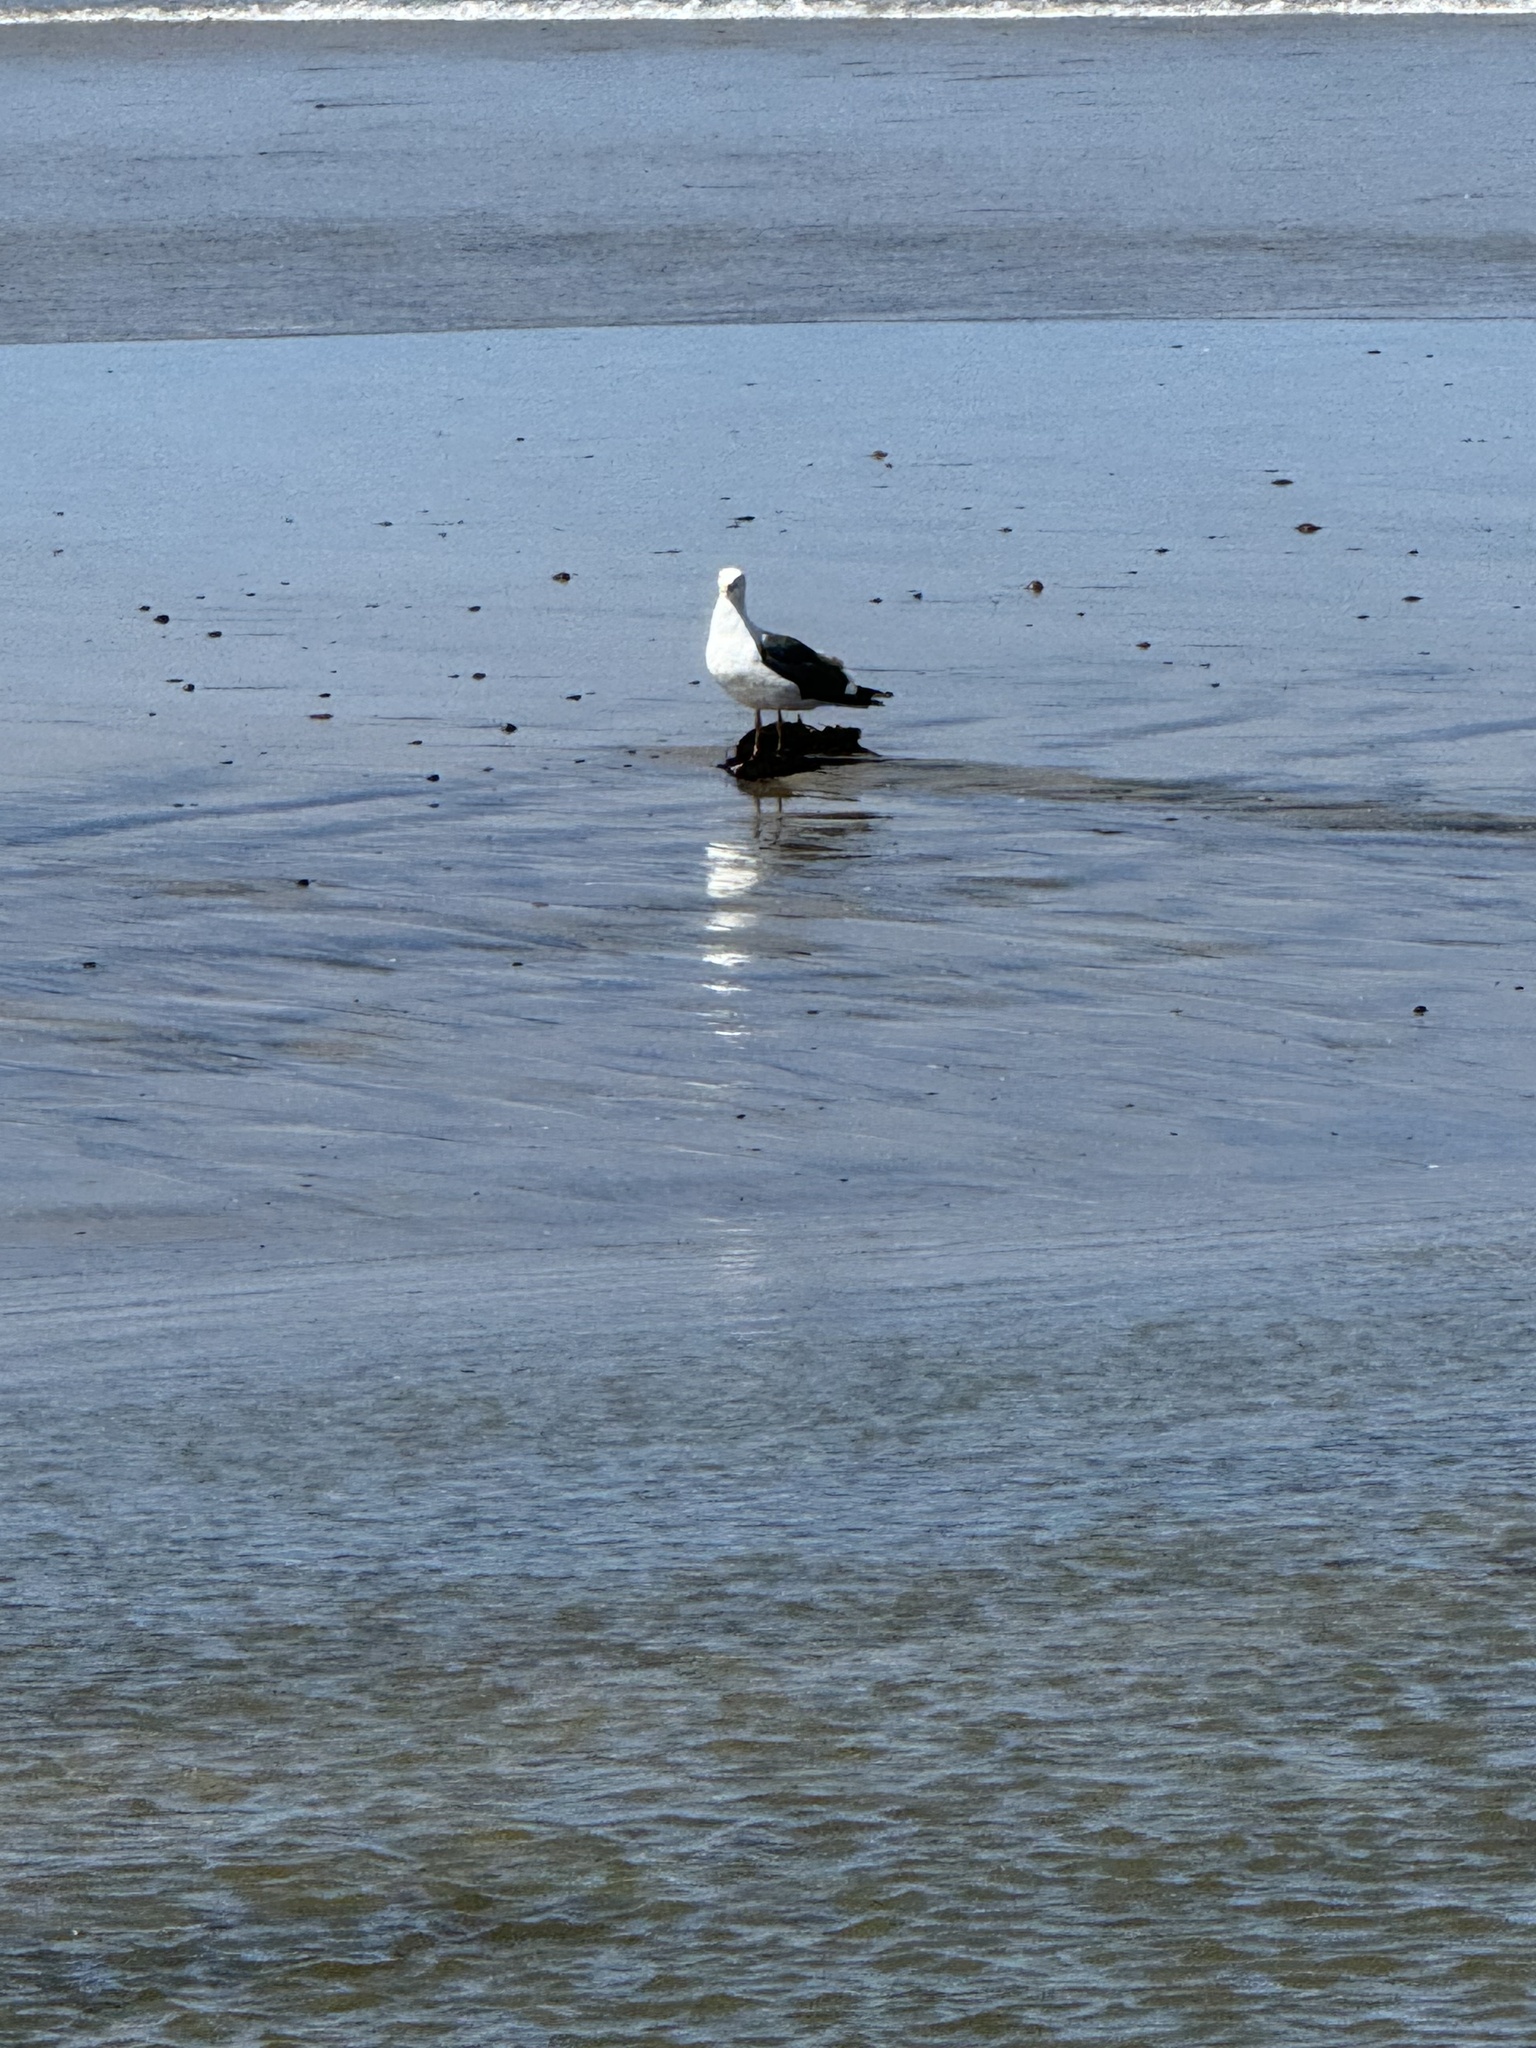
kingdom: Animalia
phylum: Chordata
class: Aves
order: Charadriiformes
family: Laridae
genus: Larus
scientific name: Larus occidentalis
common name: Western gull
